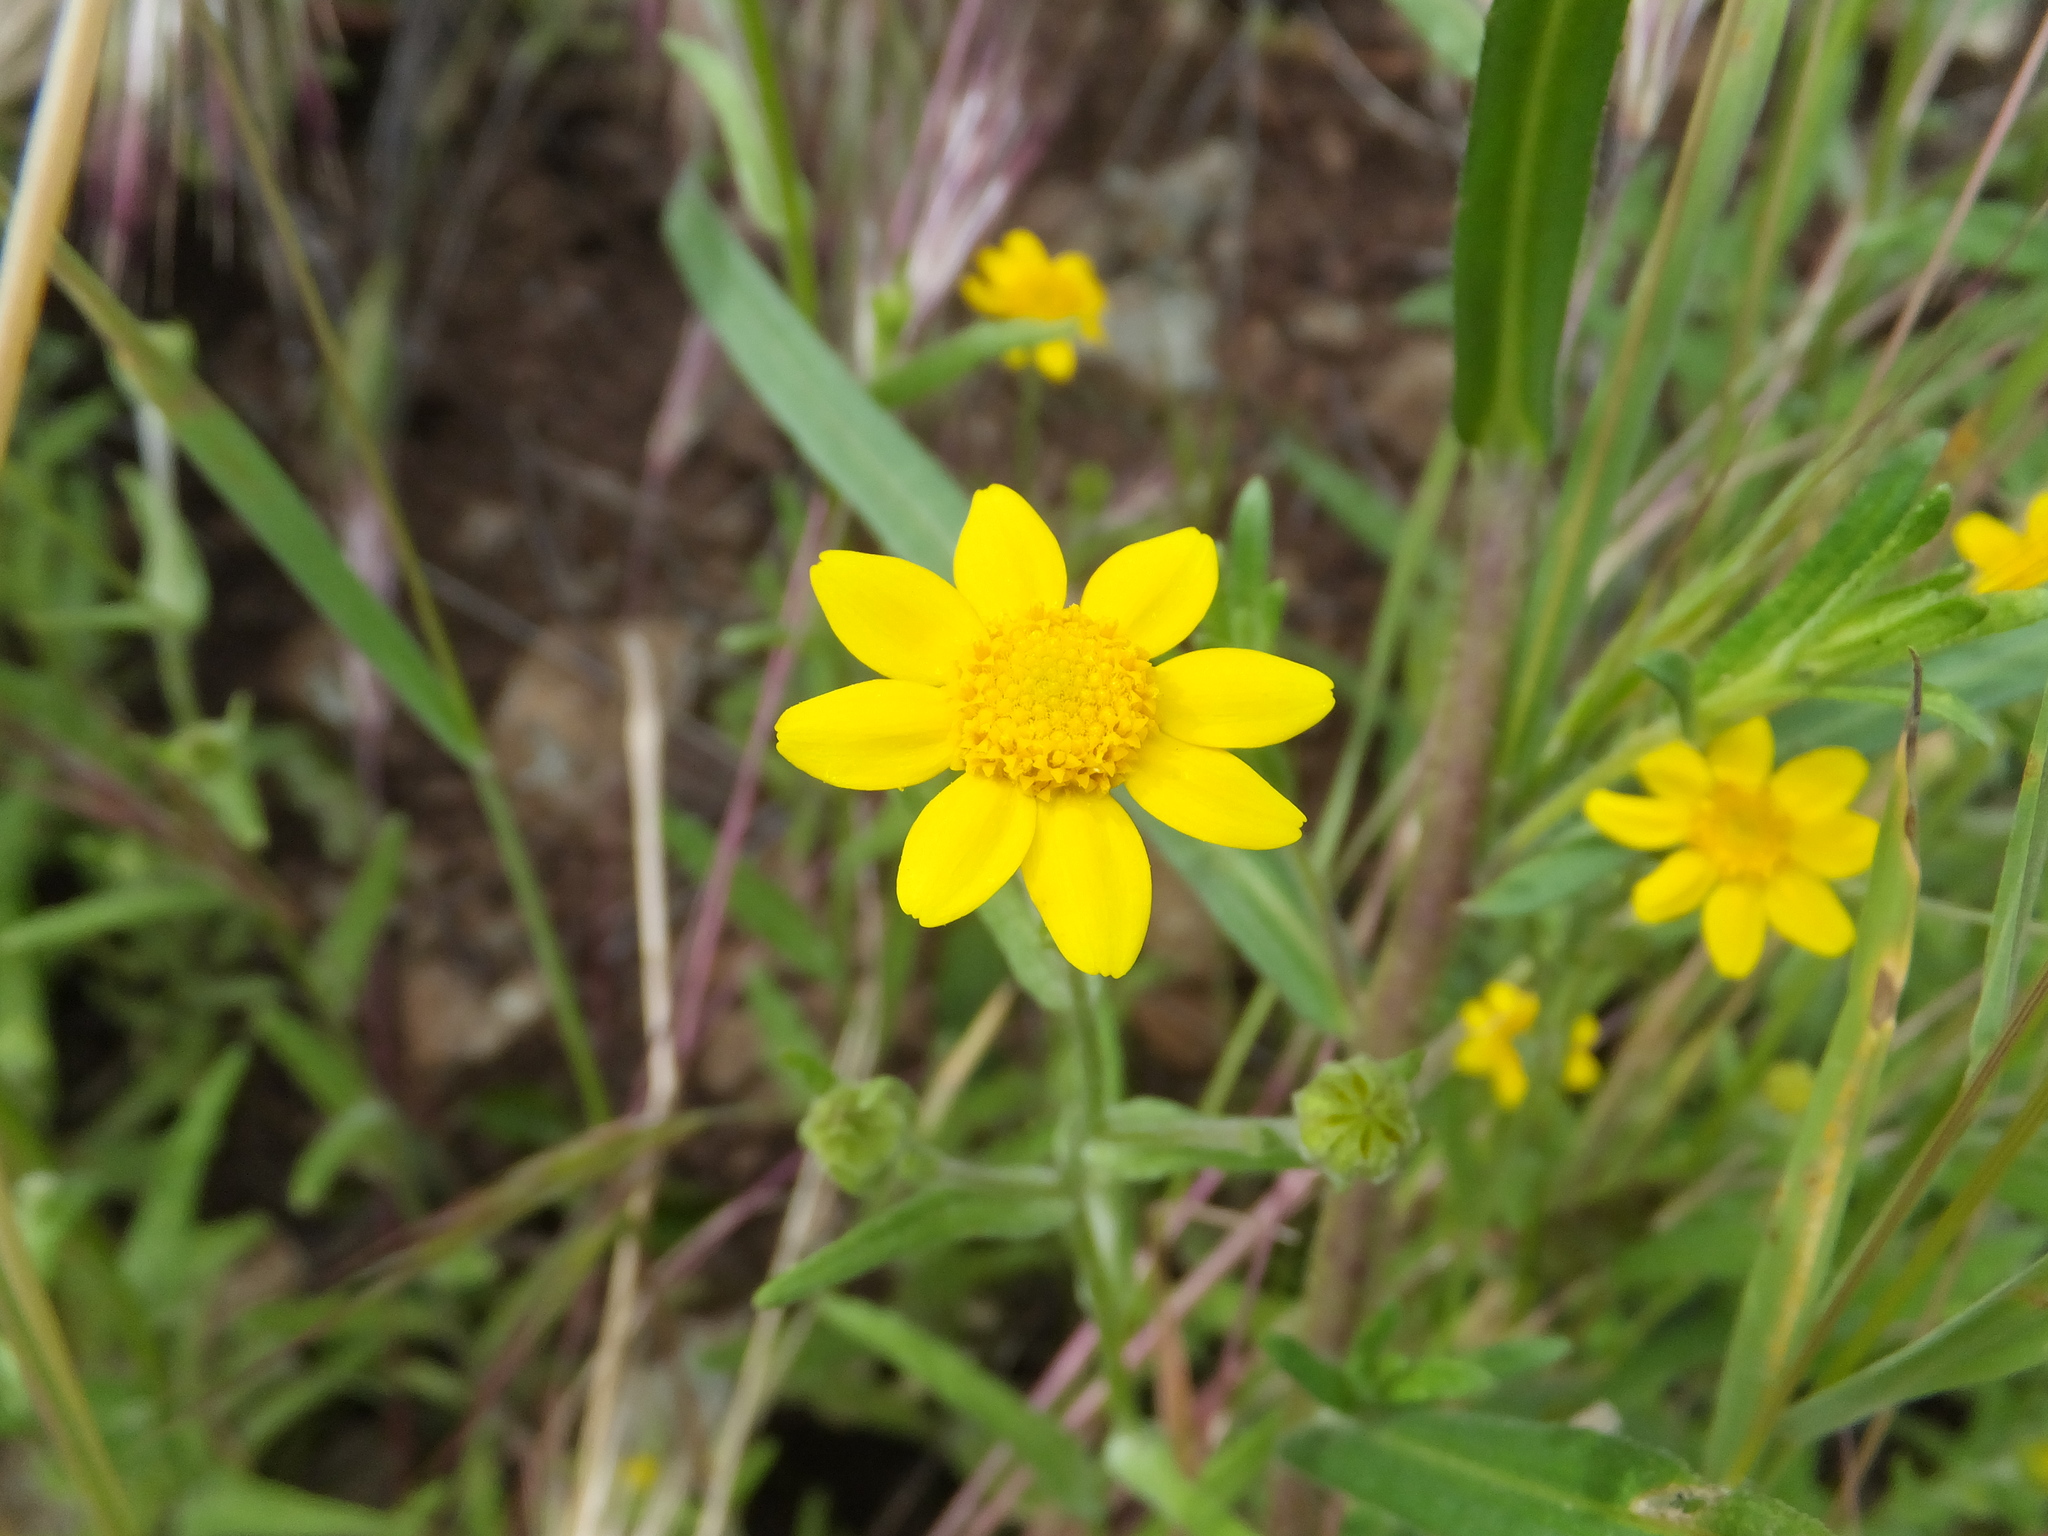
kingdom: Plantae
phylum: Tracheophyta
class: Magnoliopsida
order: Asterales
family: Asteraceae
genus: Monolopia
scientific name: Monolopia gracilens
